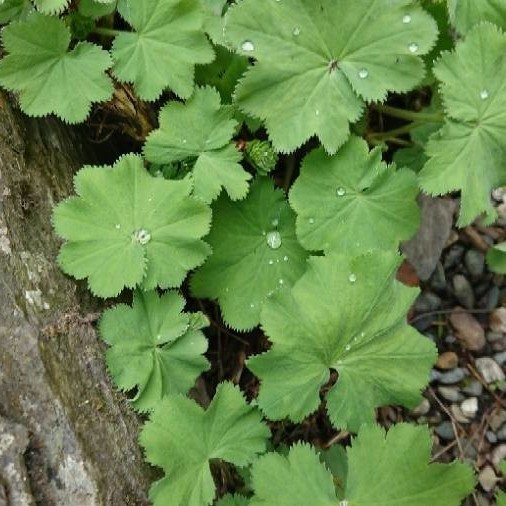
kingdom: Plantae
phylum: Tracheophyta
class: Magnoliopsida
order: Rosales
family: Rosaceae
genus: Alchemilla
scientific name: Alchemilla mollis
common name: Lady's-mantle
